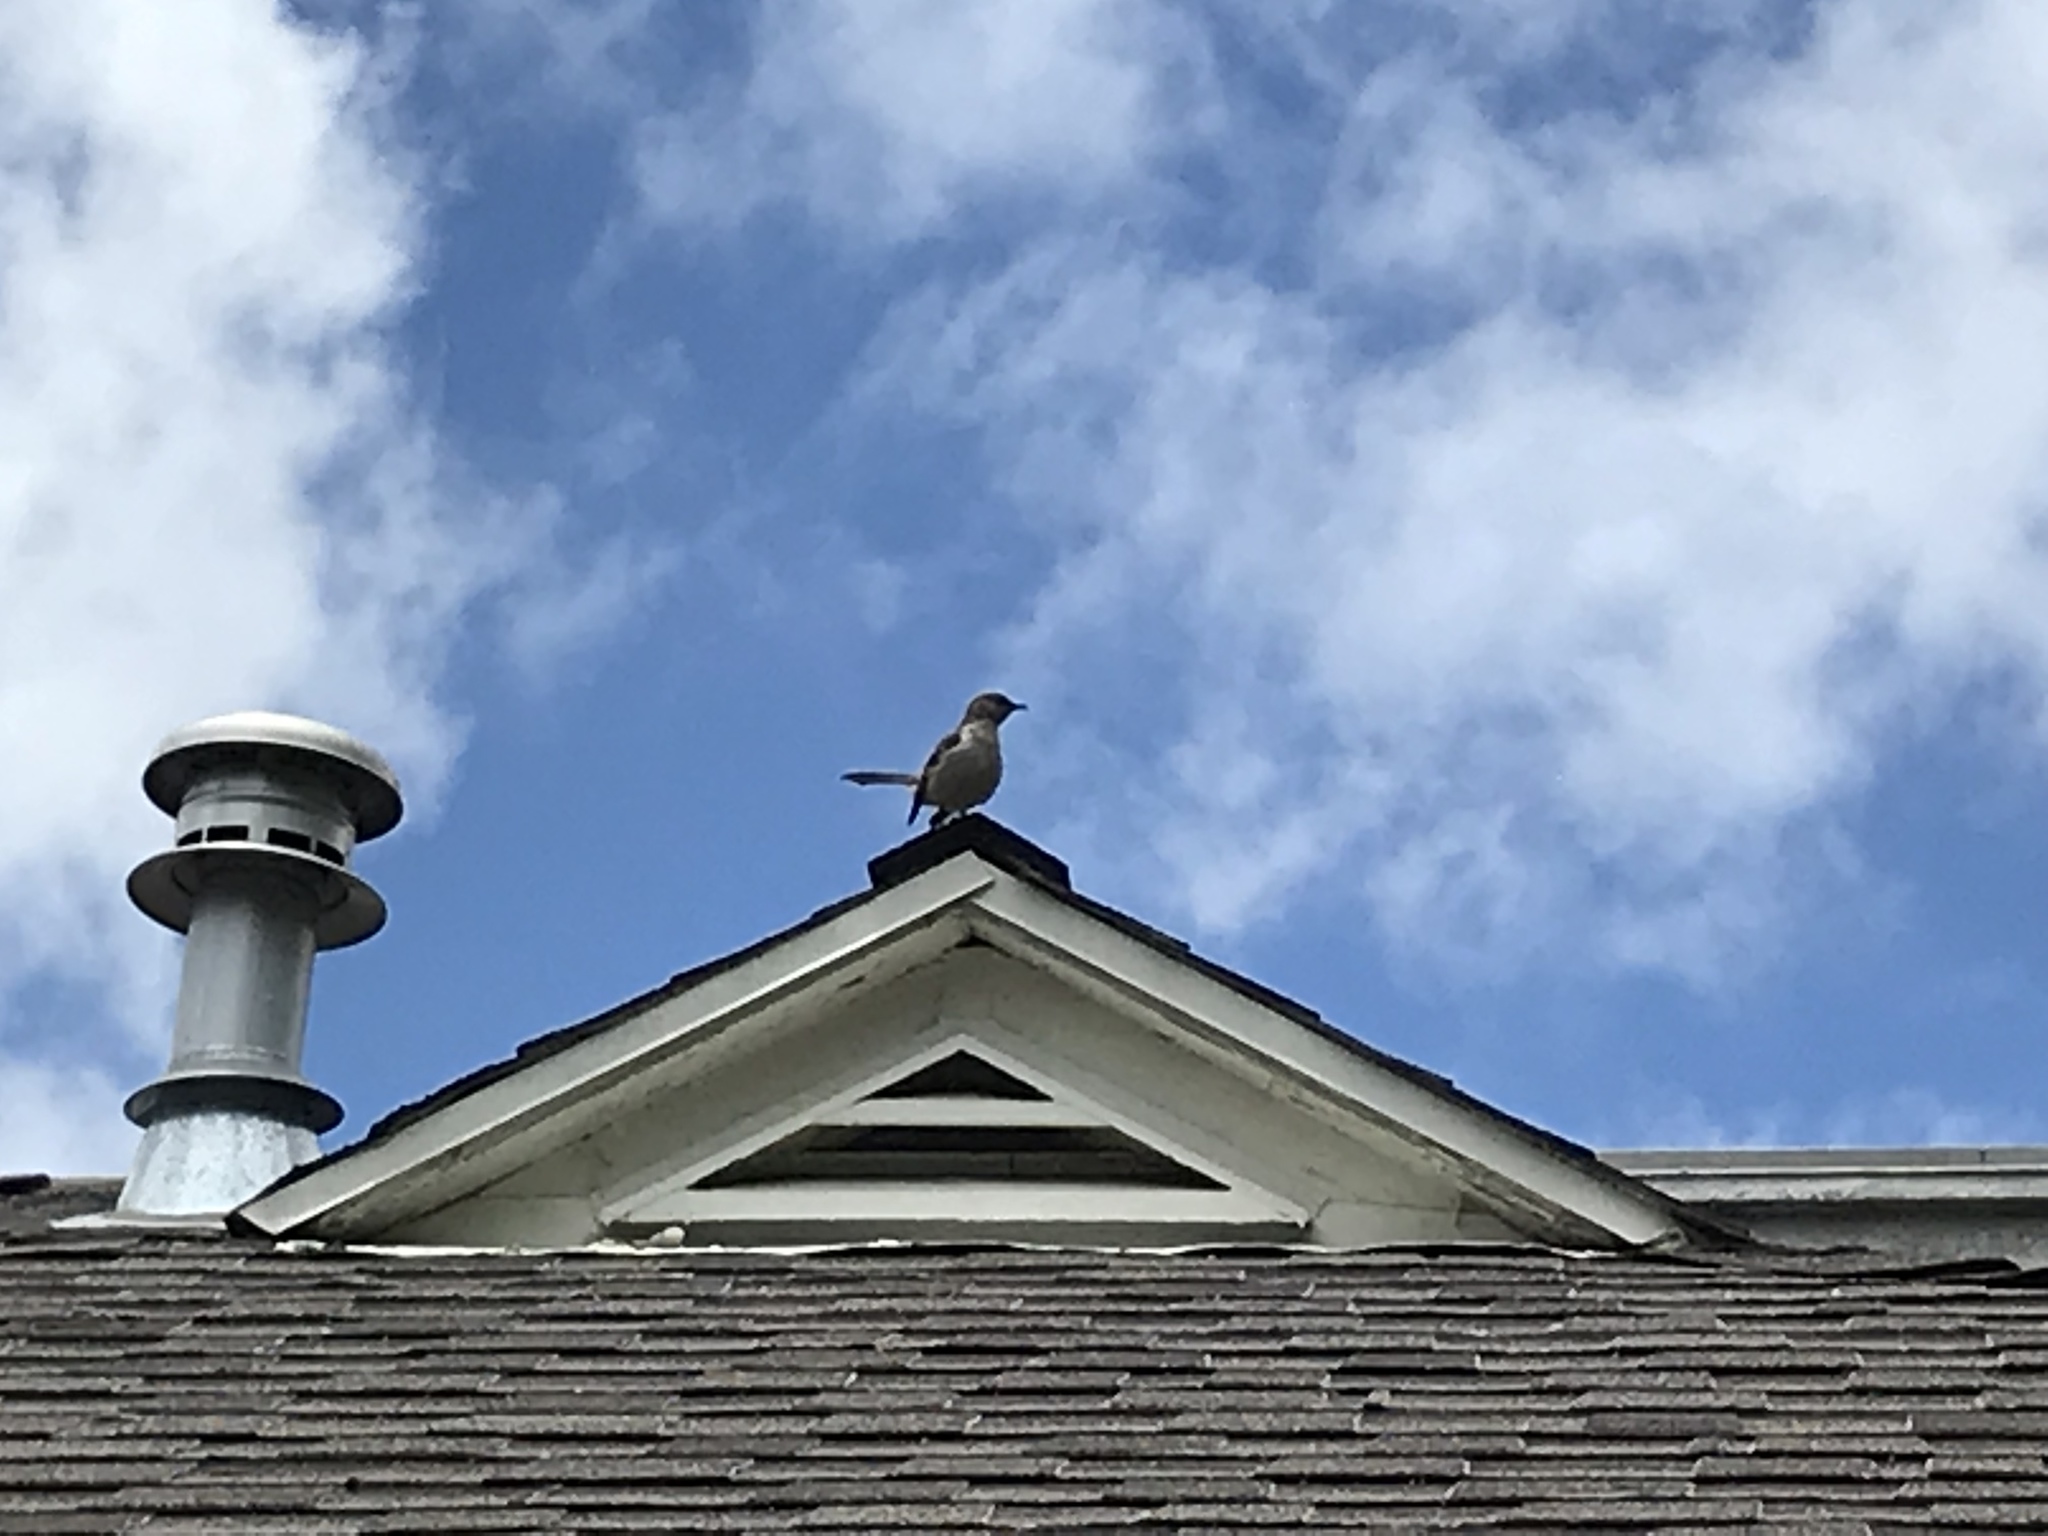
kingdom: Animalia
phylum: Chordata
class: Aves
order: Passeriformes
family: Mimidae
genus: Mimus
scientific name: Mimus polyglottos
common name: Northern mockingbird
